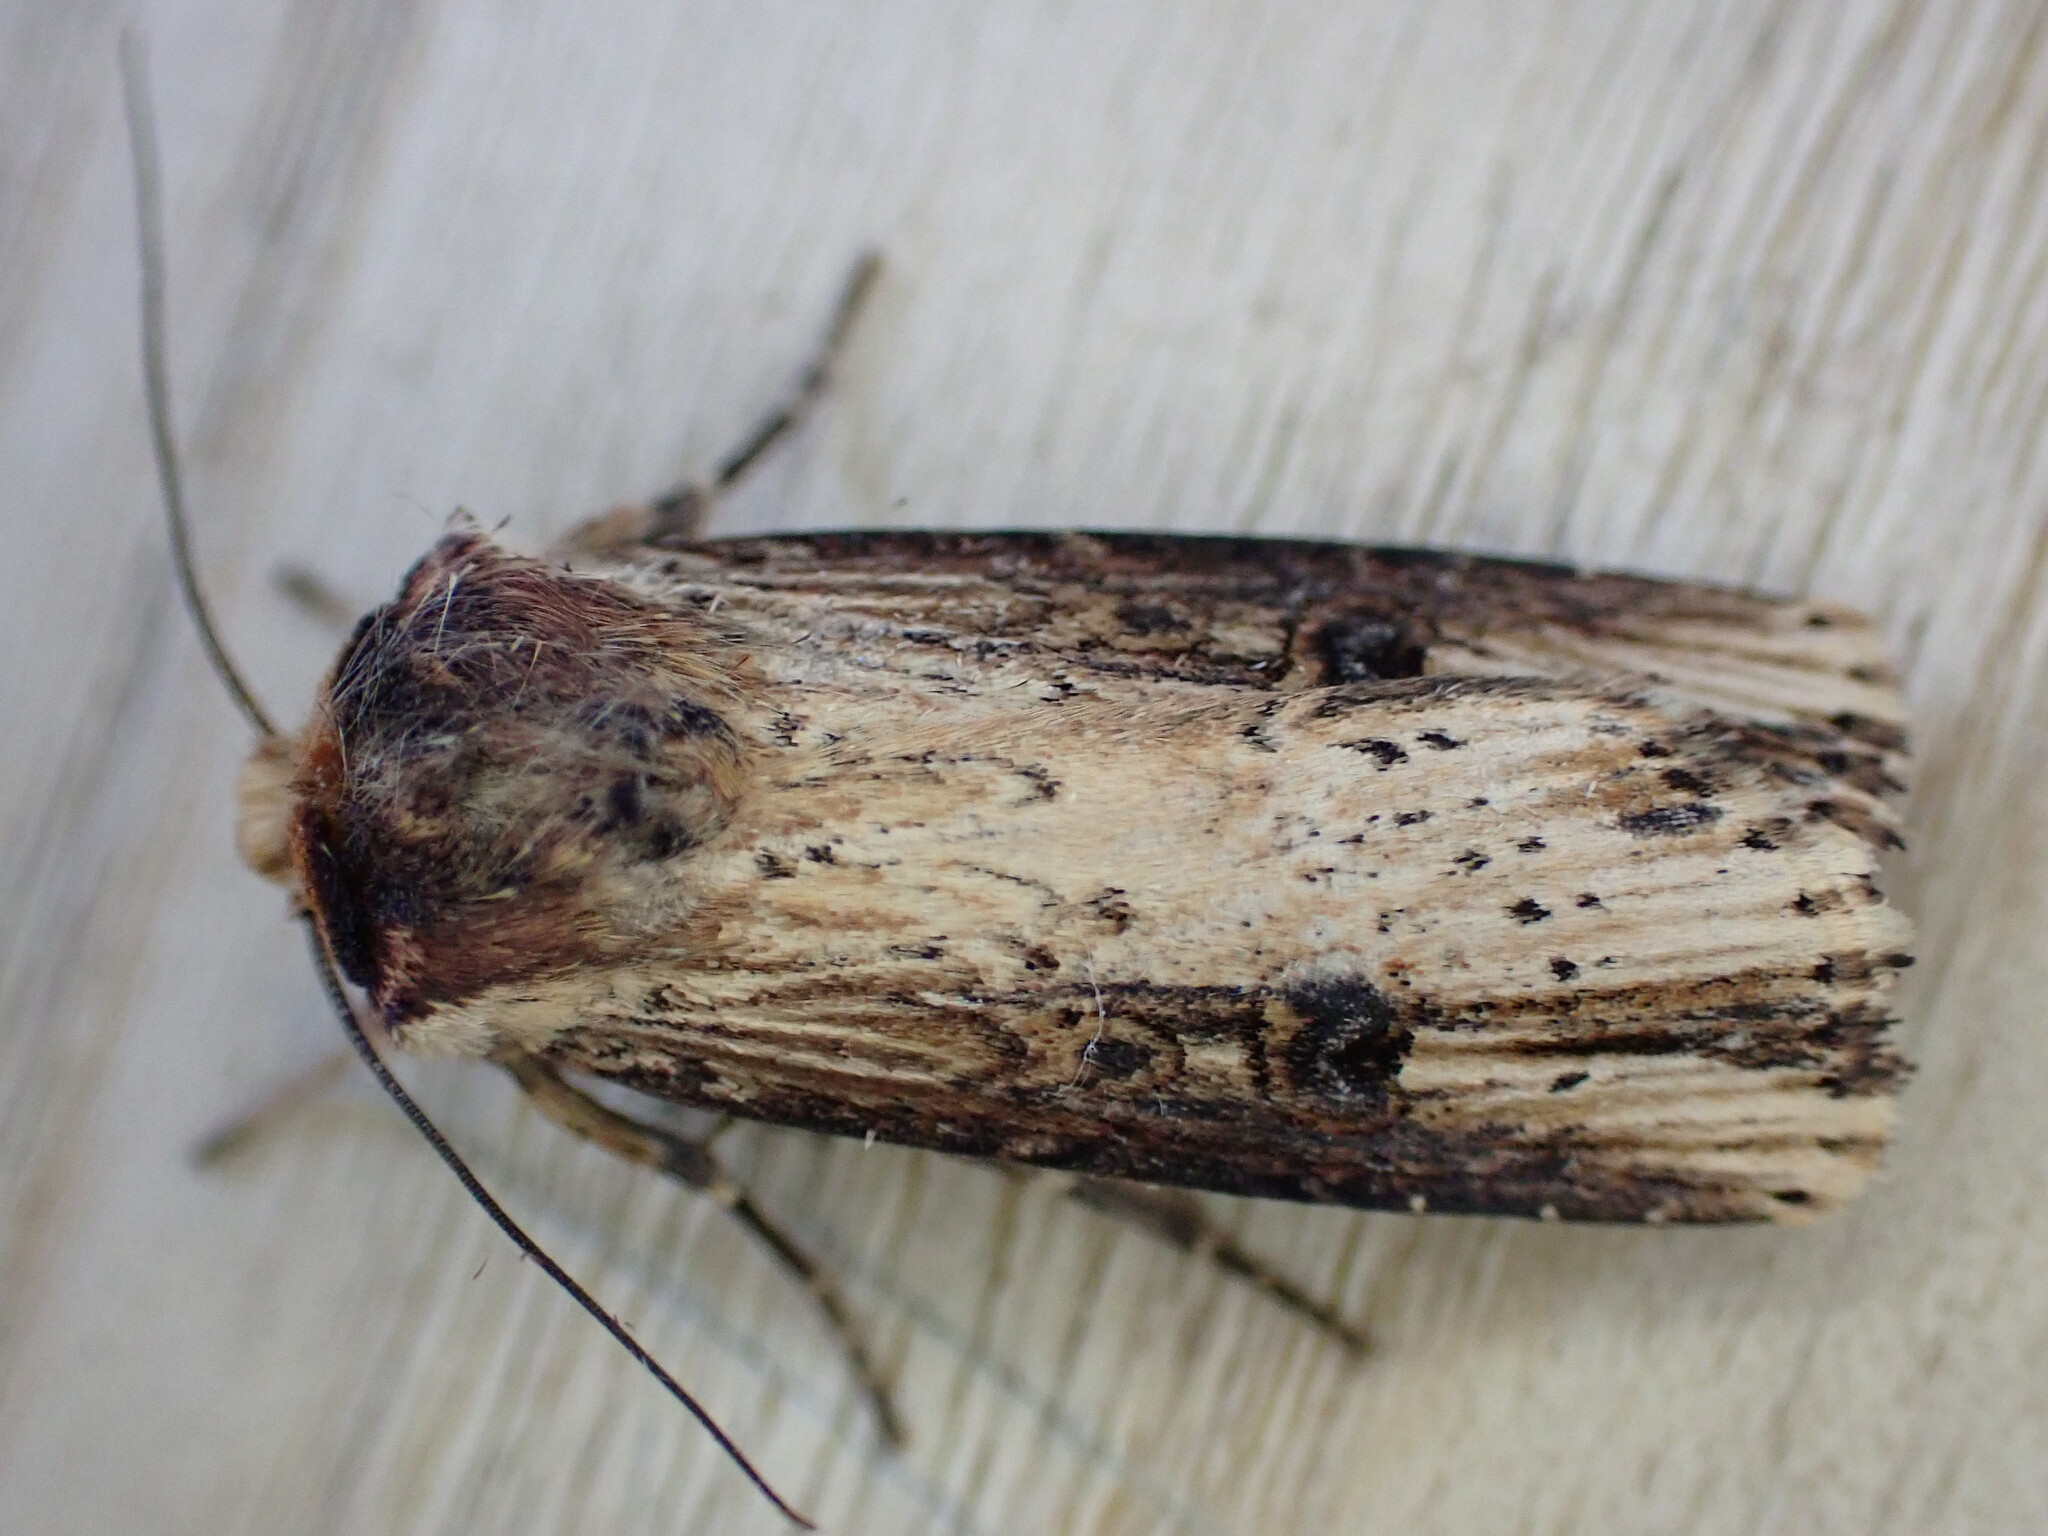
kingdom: Animalia
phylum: Arthropoda
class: Insecta
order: Lepidoptera
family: Noctuidae
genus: Axylia
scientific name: Axylia putris
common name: Flame
